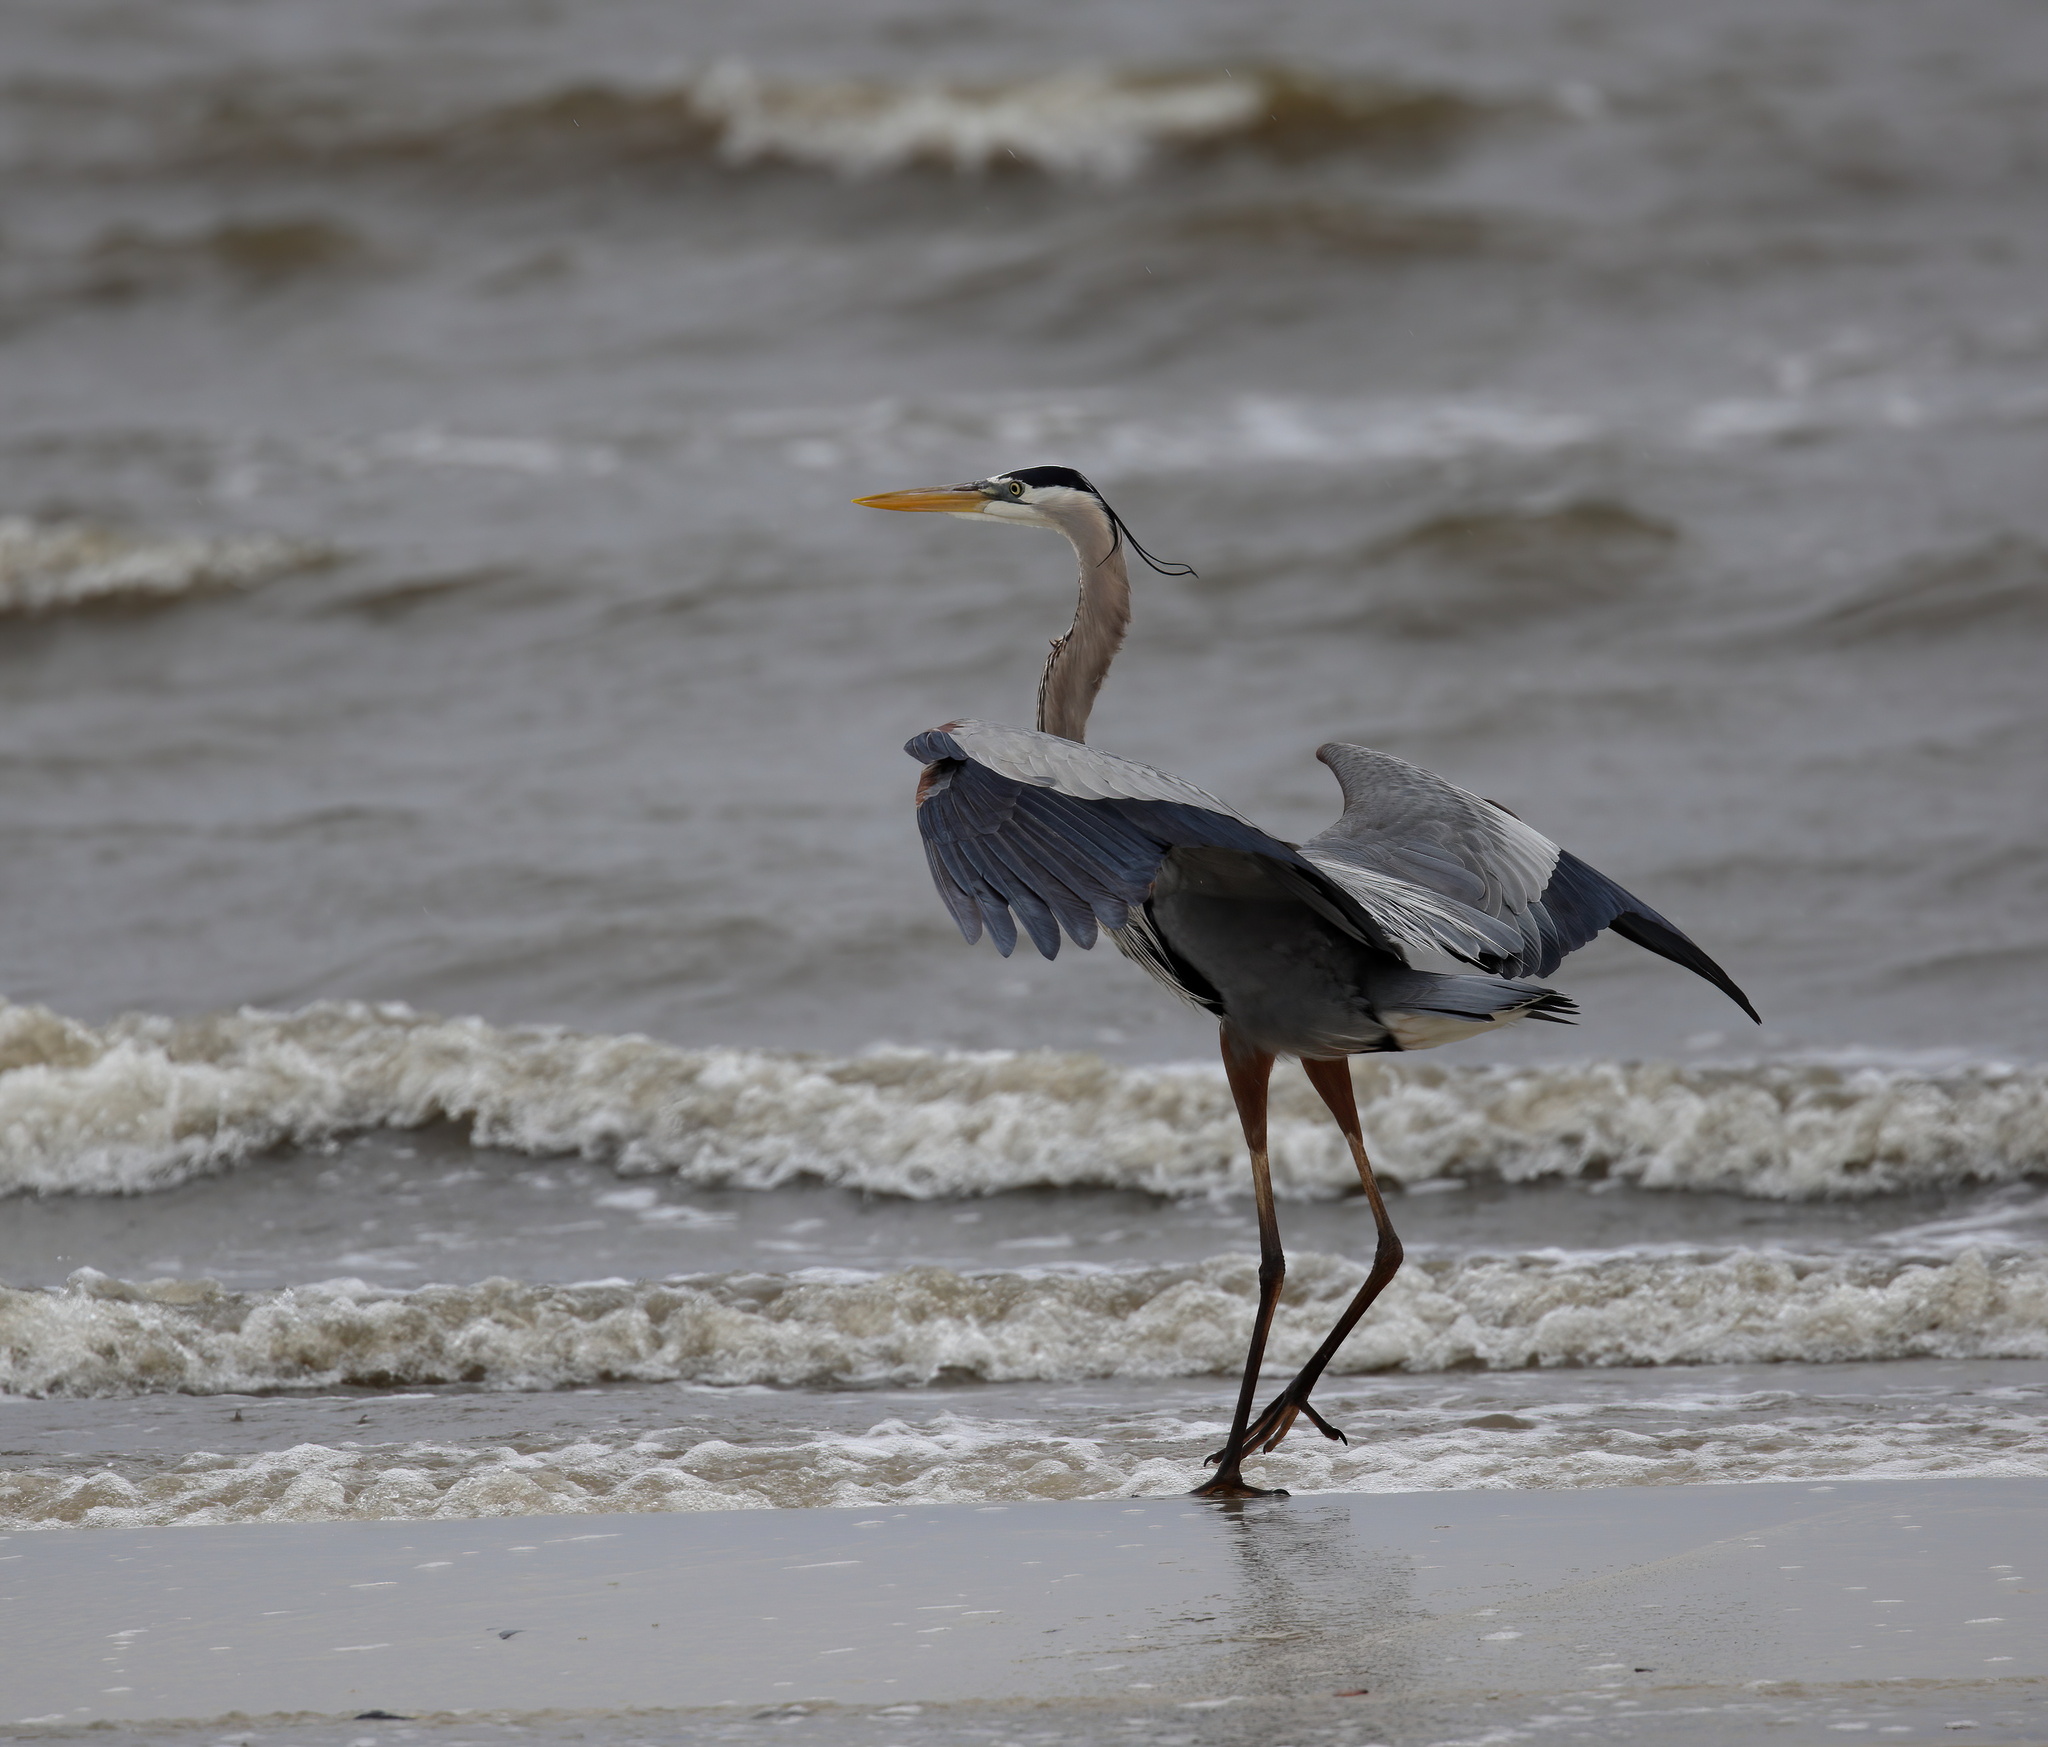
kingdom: Animalia
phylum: Chordata
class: Aves
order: Pelecaniformes
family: Ardeidae
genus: Ardea
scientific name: Ardea herodias
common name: Great blue heron
